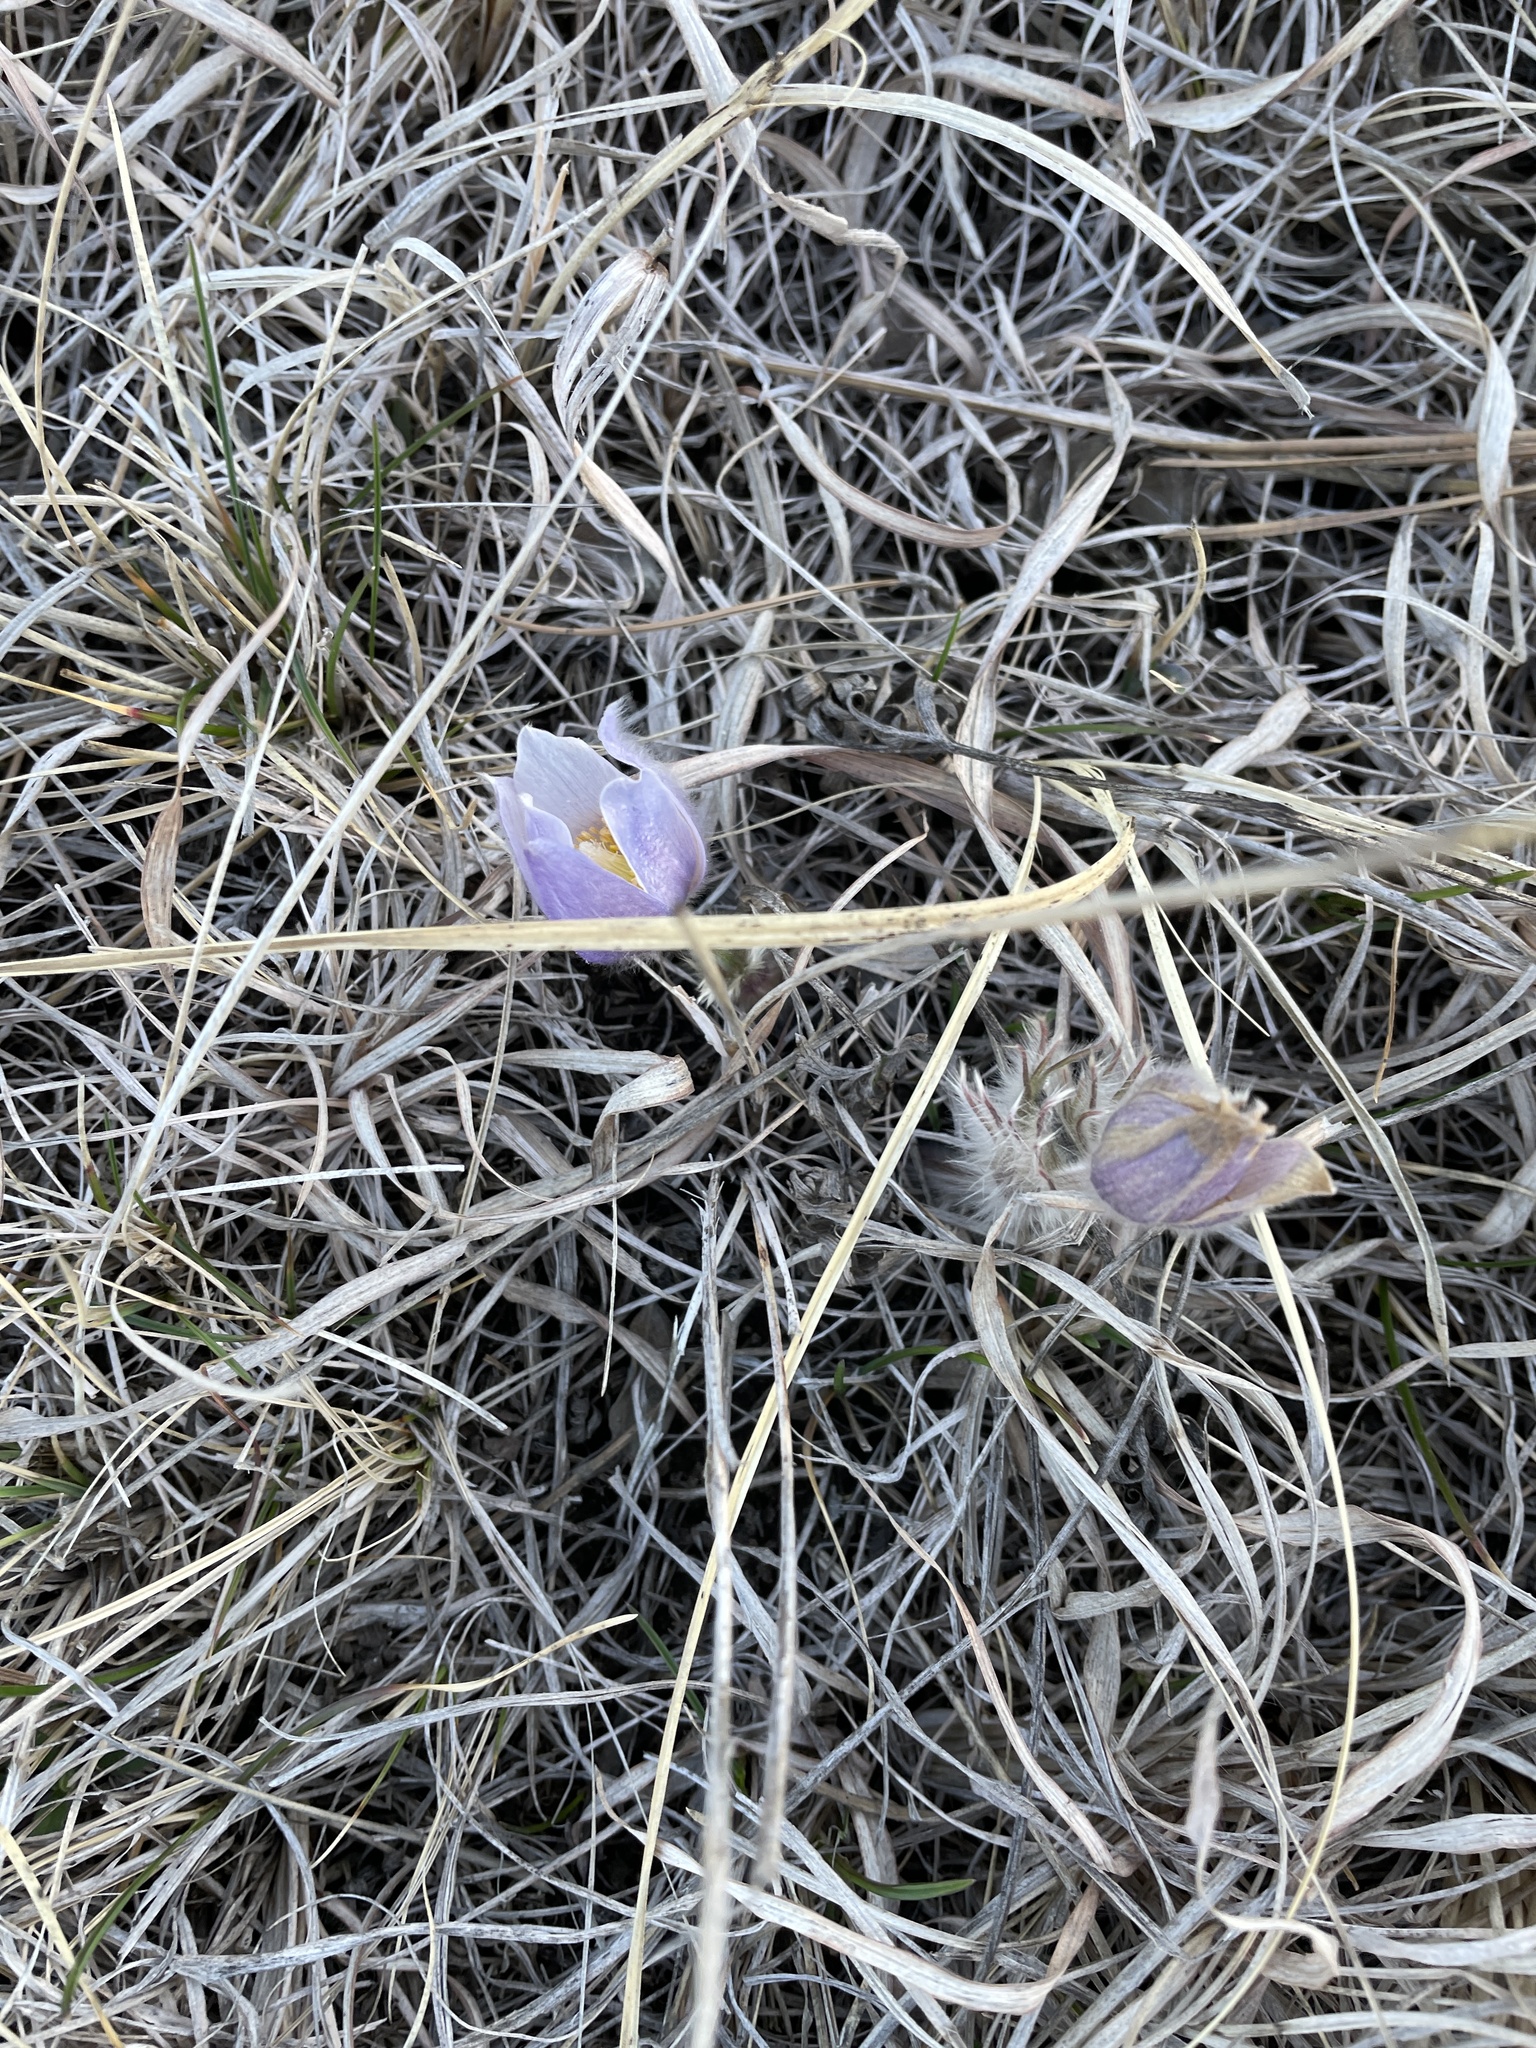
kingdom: Plantae
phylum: Tracheophyta
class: Magnoliopsida
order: Ranunculales
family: Ranunculaceae
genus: Pulsatilla
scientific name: Pulsatilla nuttalliana
